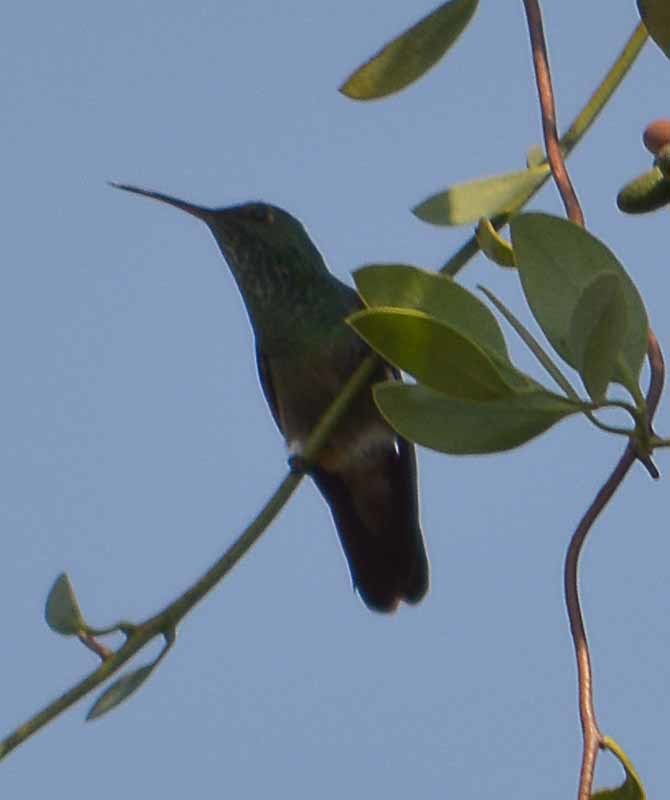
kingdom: Animalia
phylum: Chordata
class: Aves
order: Apodiformes
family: Trochilidae
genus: Saucerottia
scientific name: Saucerottia beryllina
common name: Berylline hummingbird
